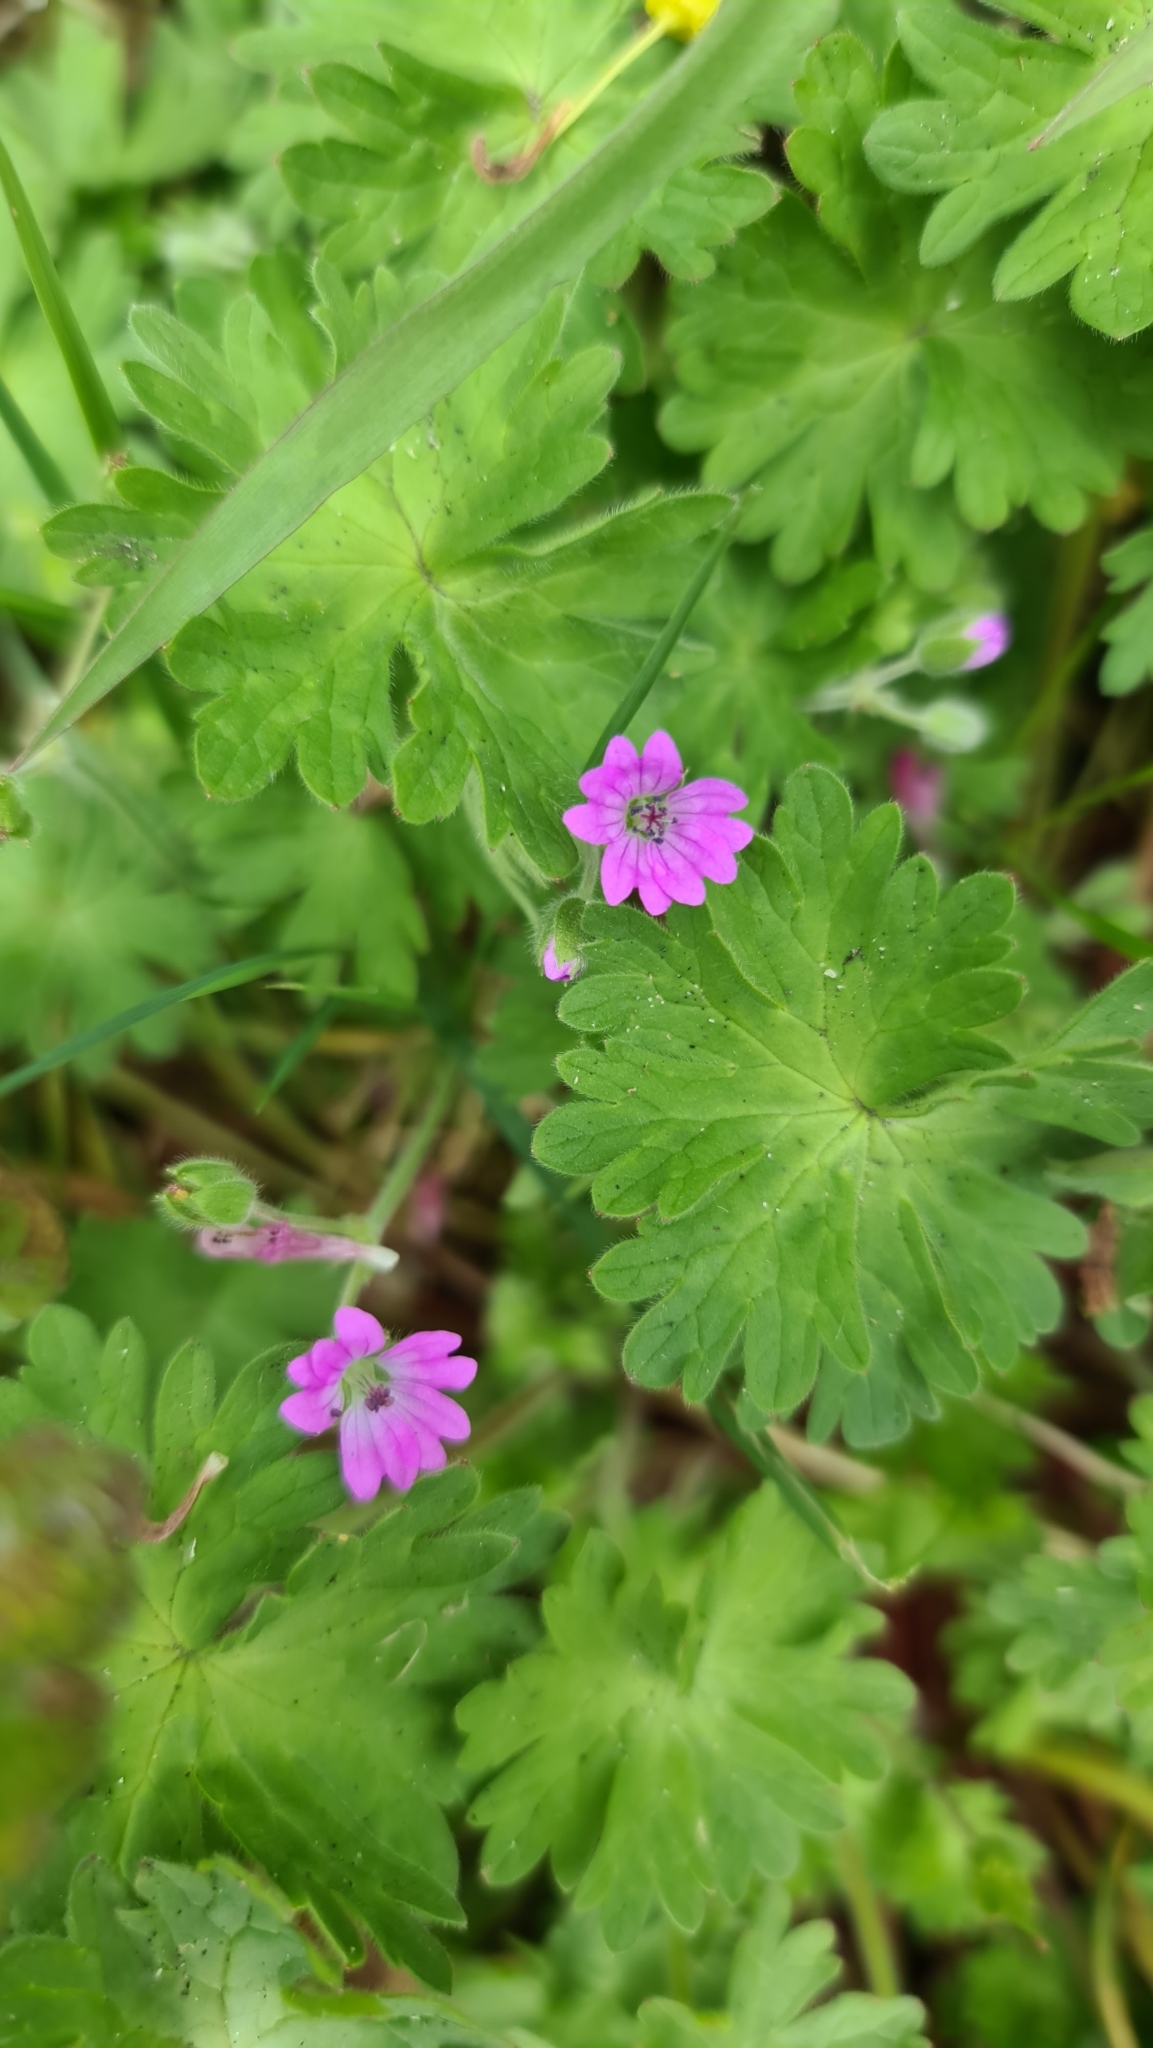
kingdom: Plantae
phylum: Tracheophyta
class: Magnoliopsida
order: Geraniales
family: Geraniaceae
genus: Geranium
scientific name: Geranium molle
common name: Dove's-foot crane's-bill
